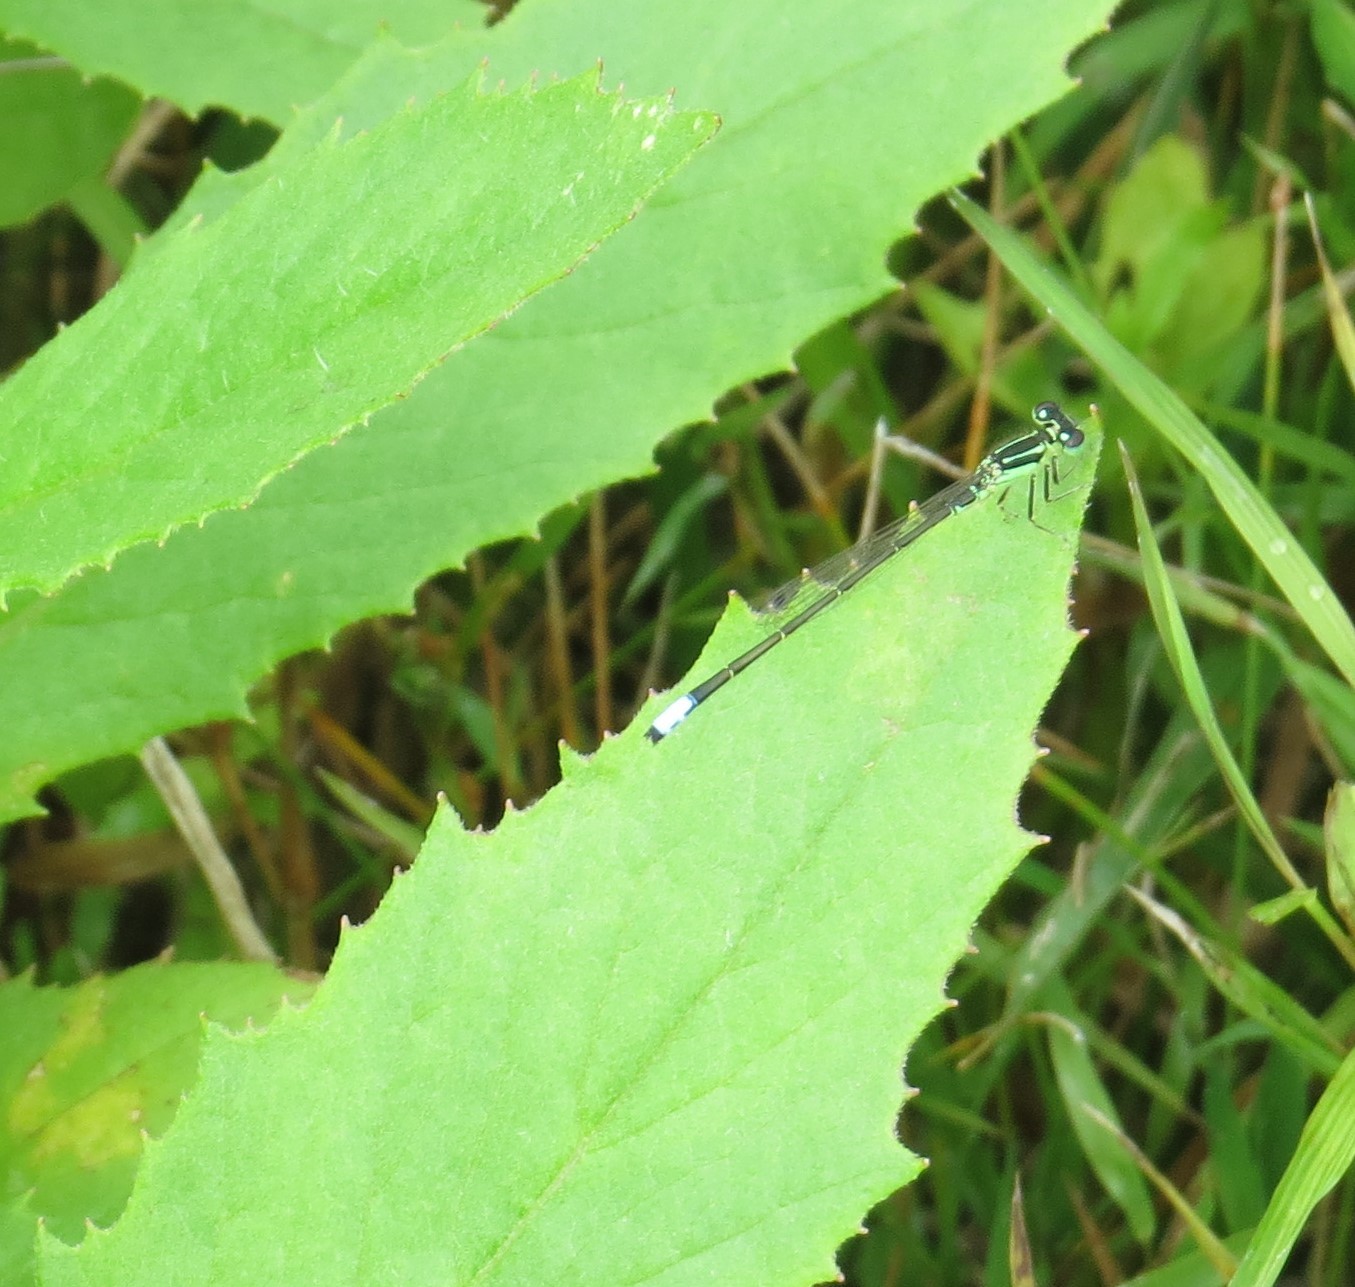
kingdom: Animalia
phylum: Arthropoda
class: Insecta
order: Odonata
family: Coenagrionidae
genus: Ischnura
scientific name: Ischnura verticalis
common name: Eastern forktail
